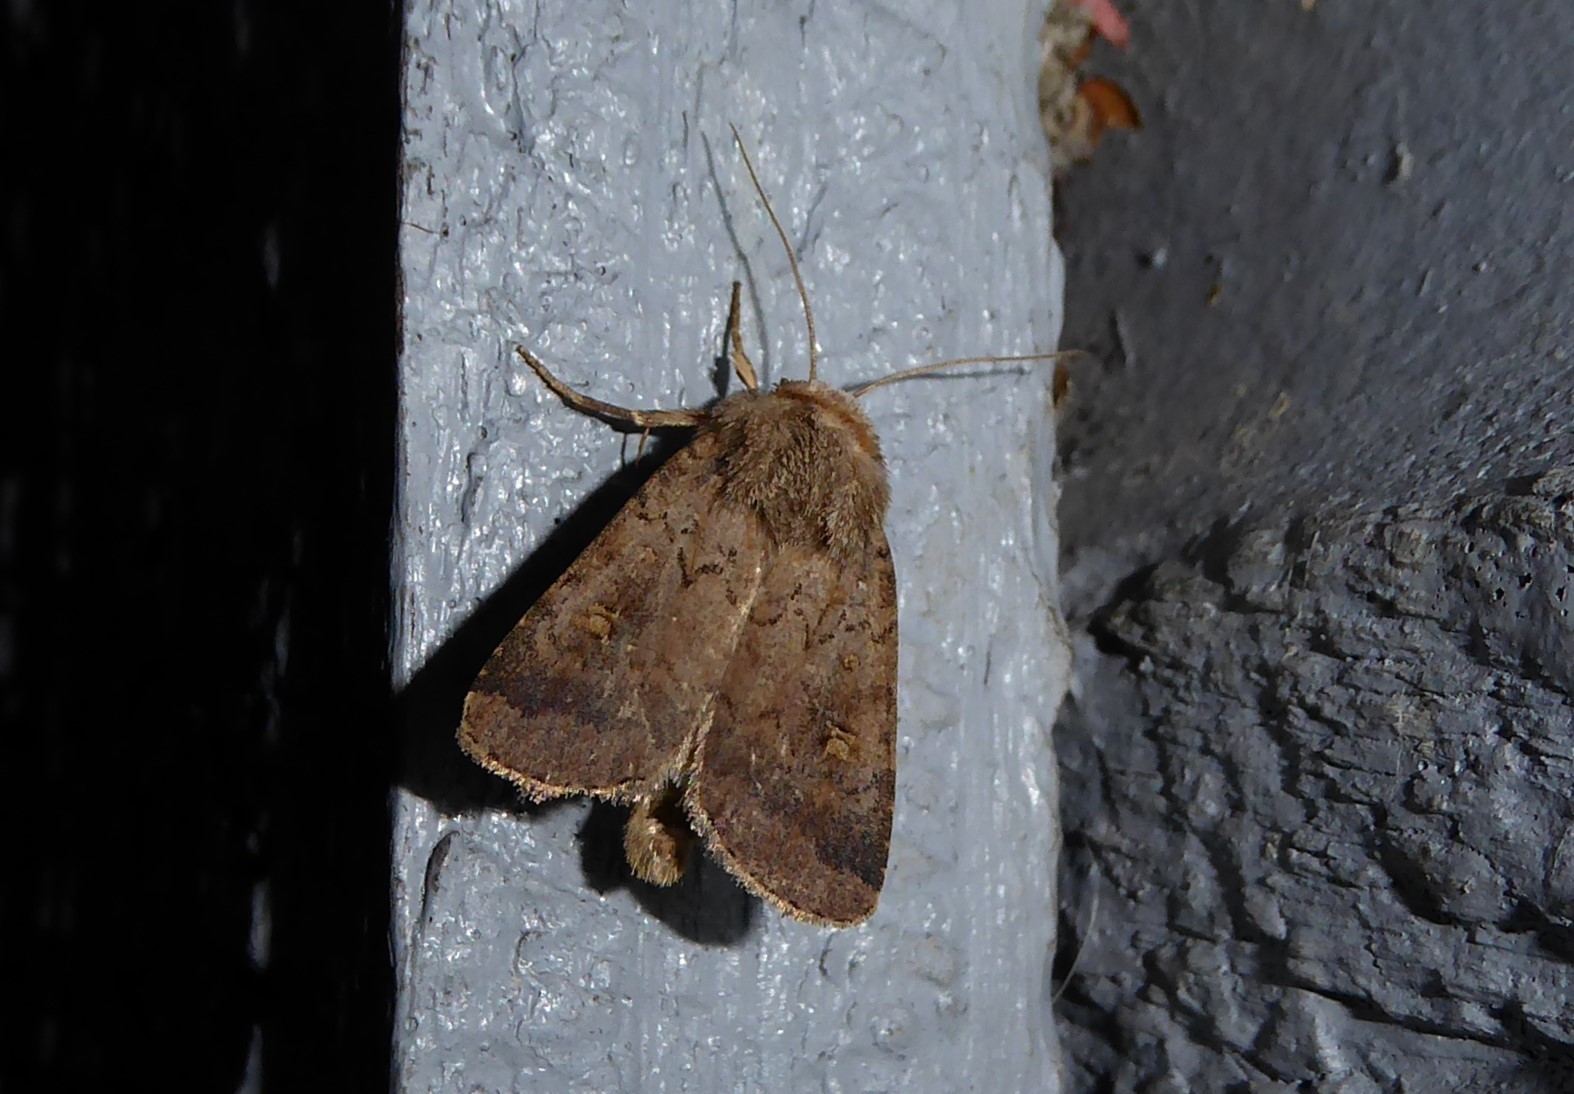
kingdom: Animalia
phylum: Arthropoda
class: Insecta
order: Lepidoptera
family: Noctuidae
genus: Proteuxoa
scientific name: Proteuxoa tetronycha
